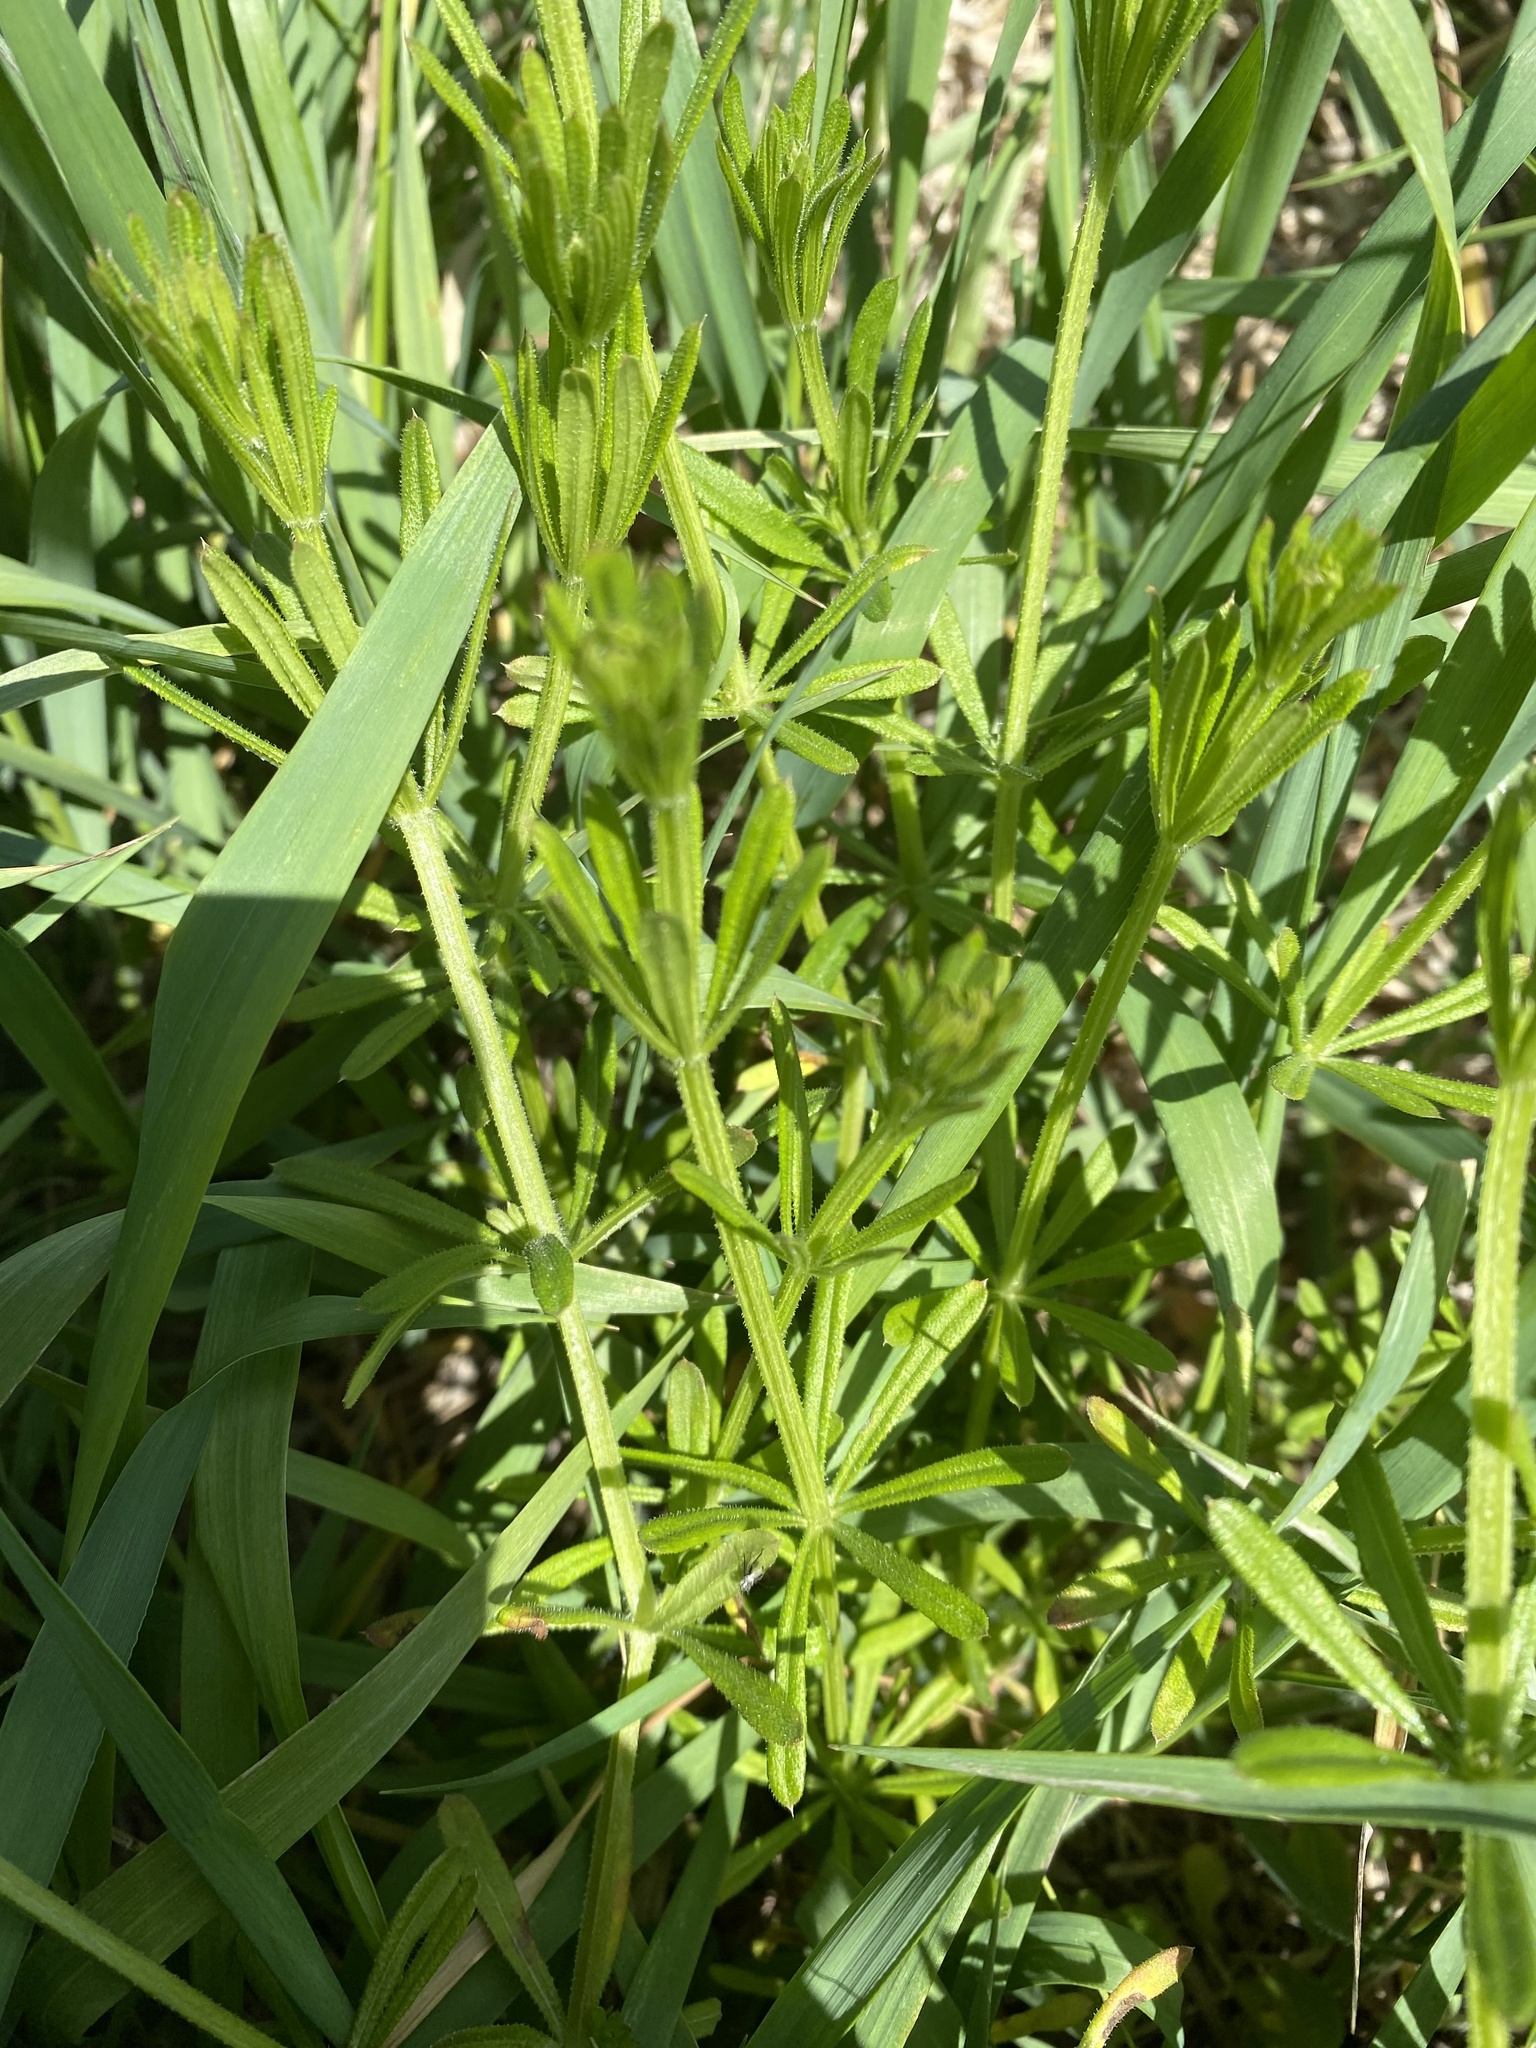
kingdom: Plantae
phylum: Tracheophyta
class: Magnoliopsida
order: Gentianales
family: Rubiaceae
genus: Galium
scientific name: Galium aparine
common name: Cleavers
